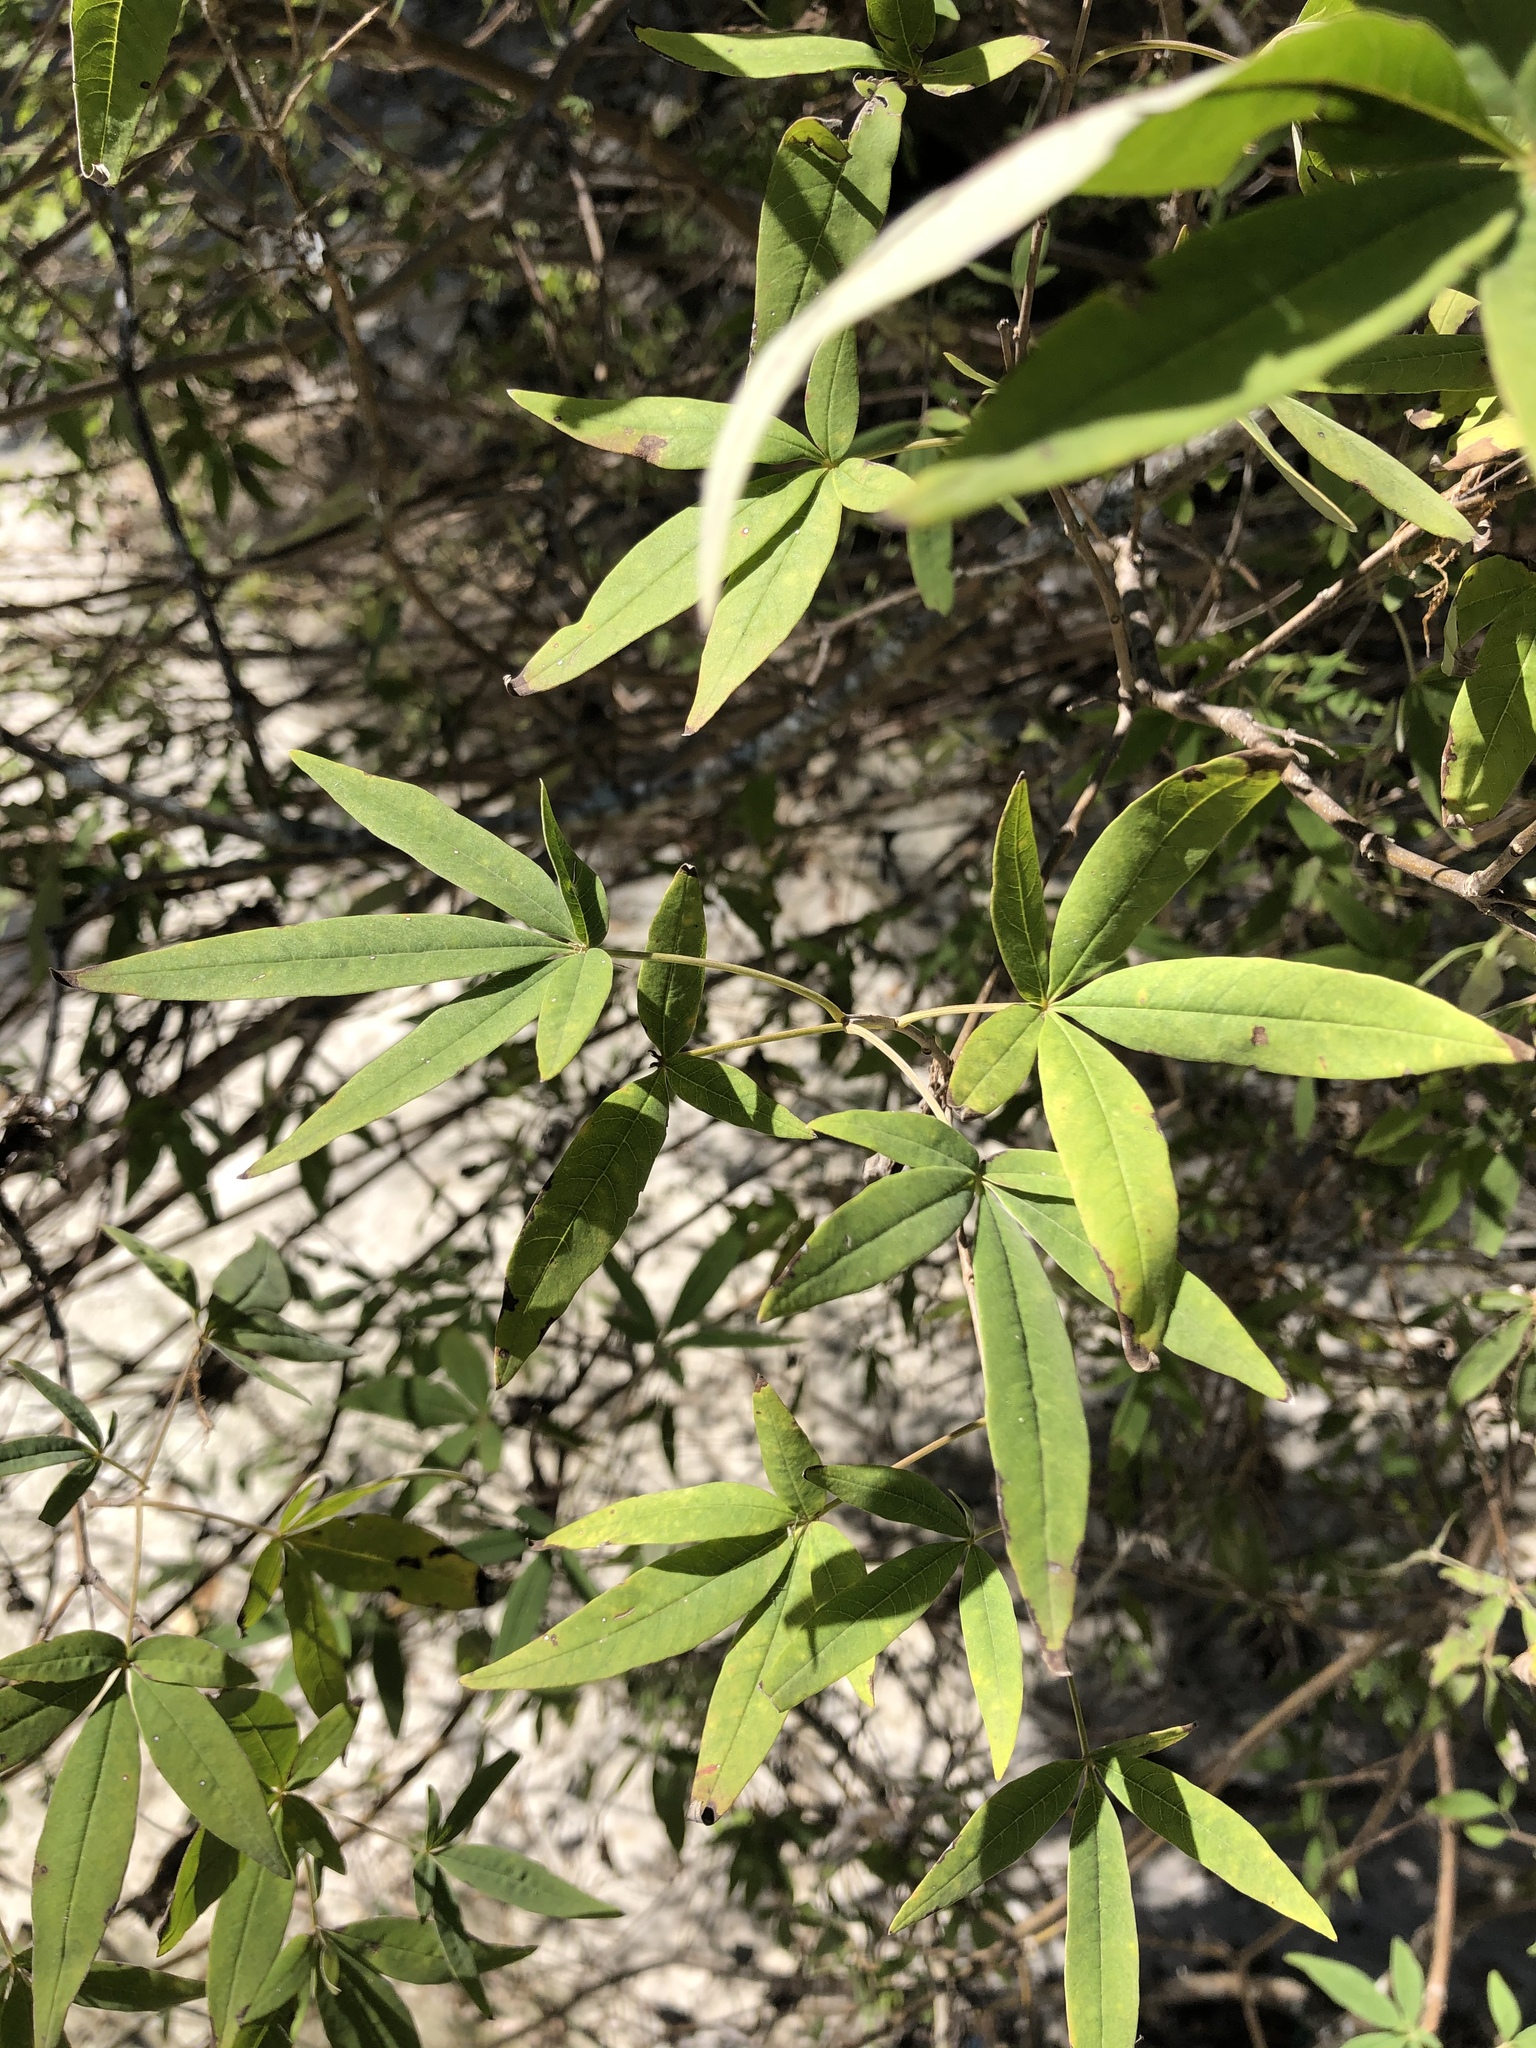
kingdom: Plantae
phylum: Tracheophyta
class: Magnoliopsida
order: Lamiales
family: Lamiaceae
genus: Vitex
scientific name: Vitex agnus-castus
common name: Chasteberry
